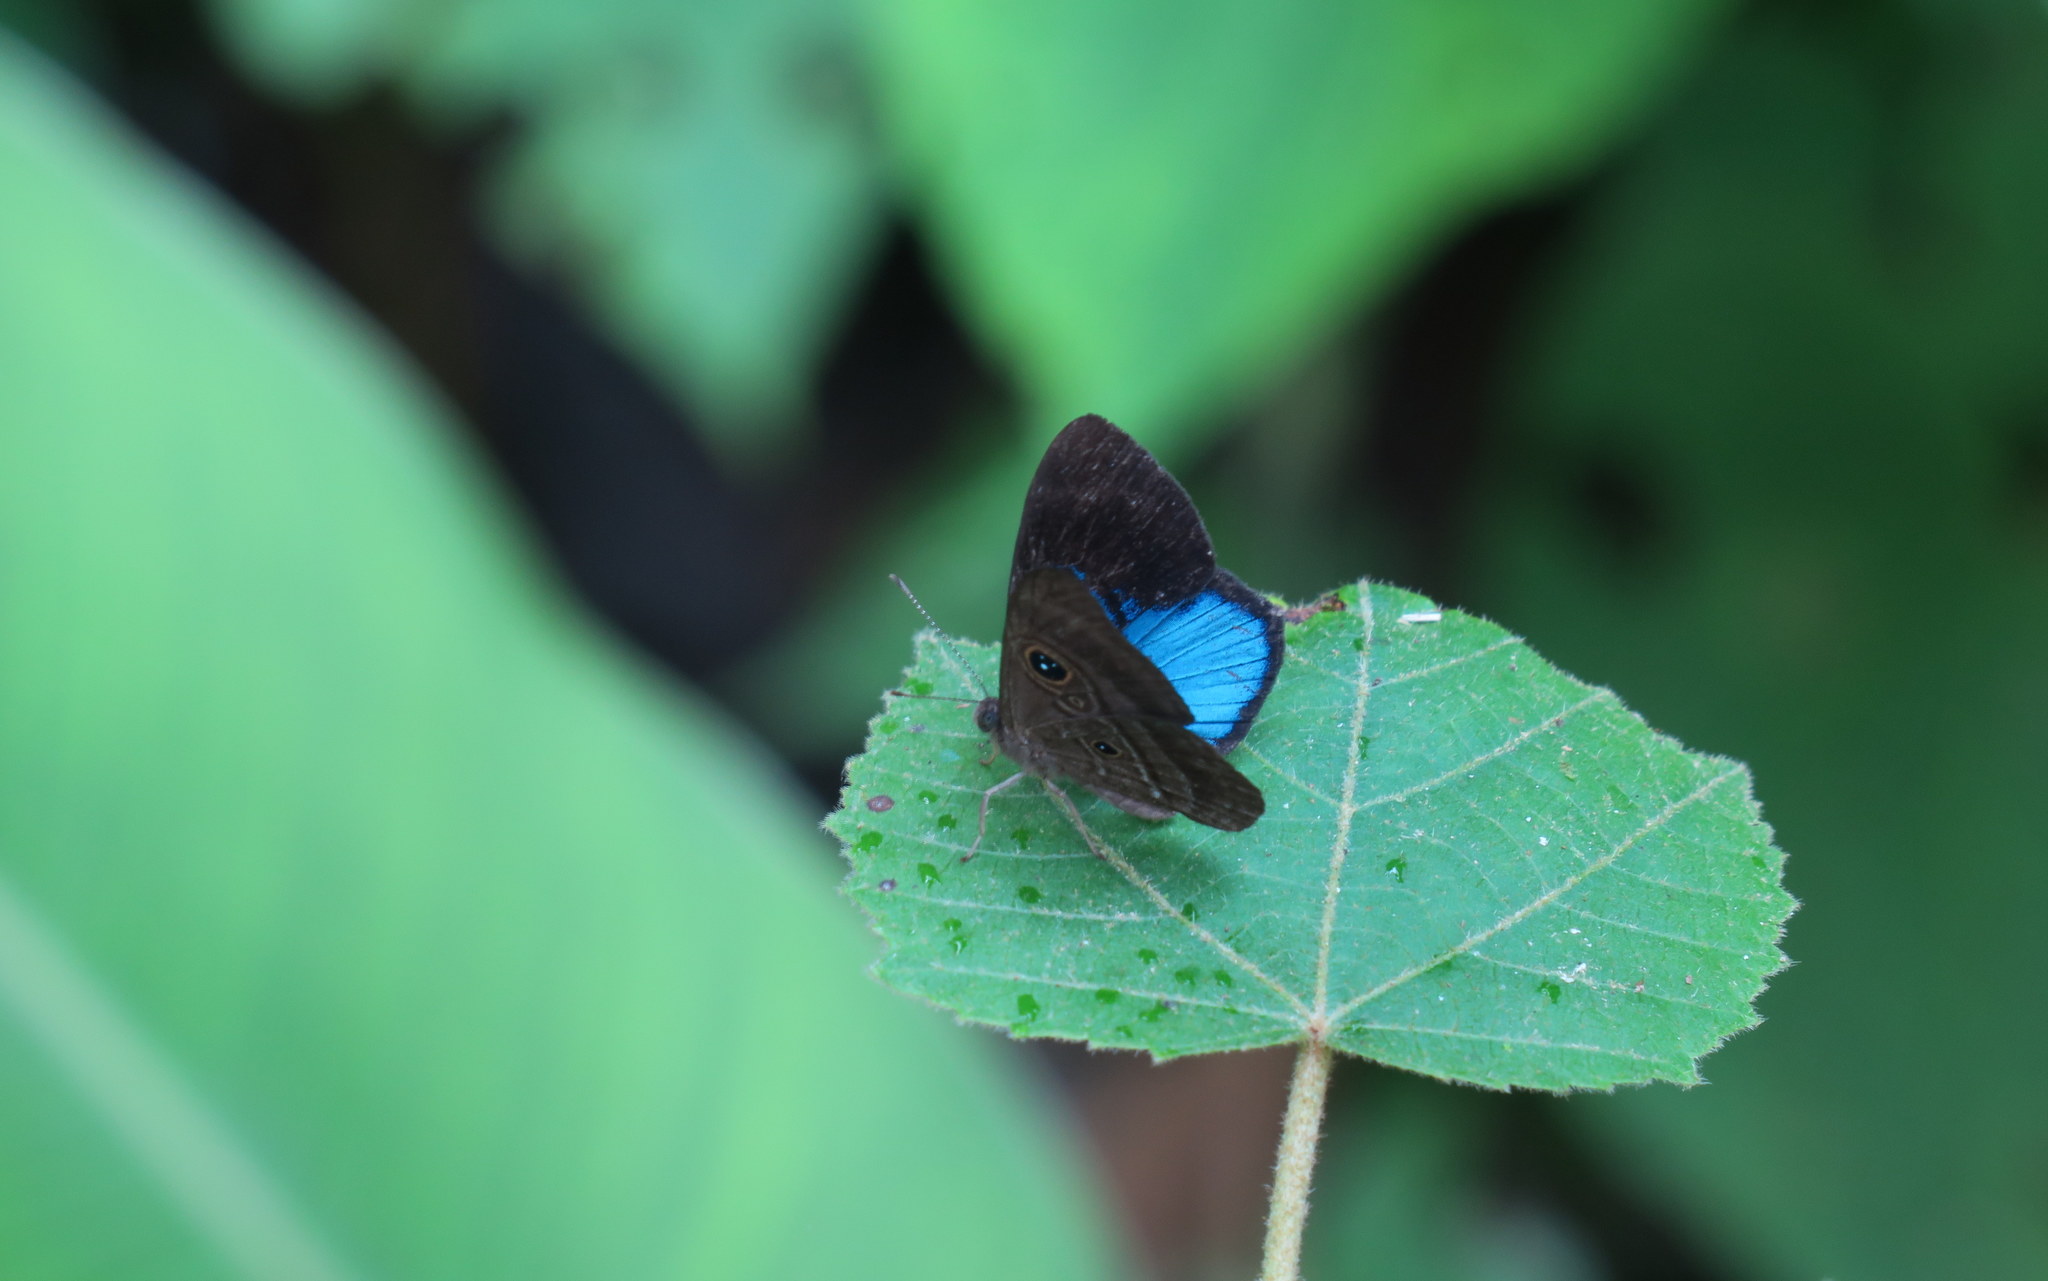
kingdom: Animalia
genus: Mesosemia
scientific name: Mesosemia asa
